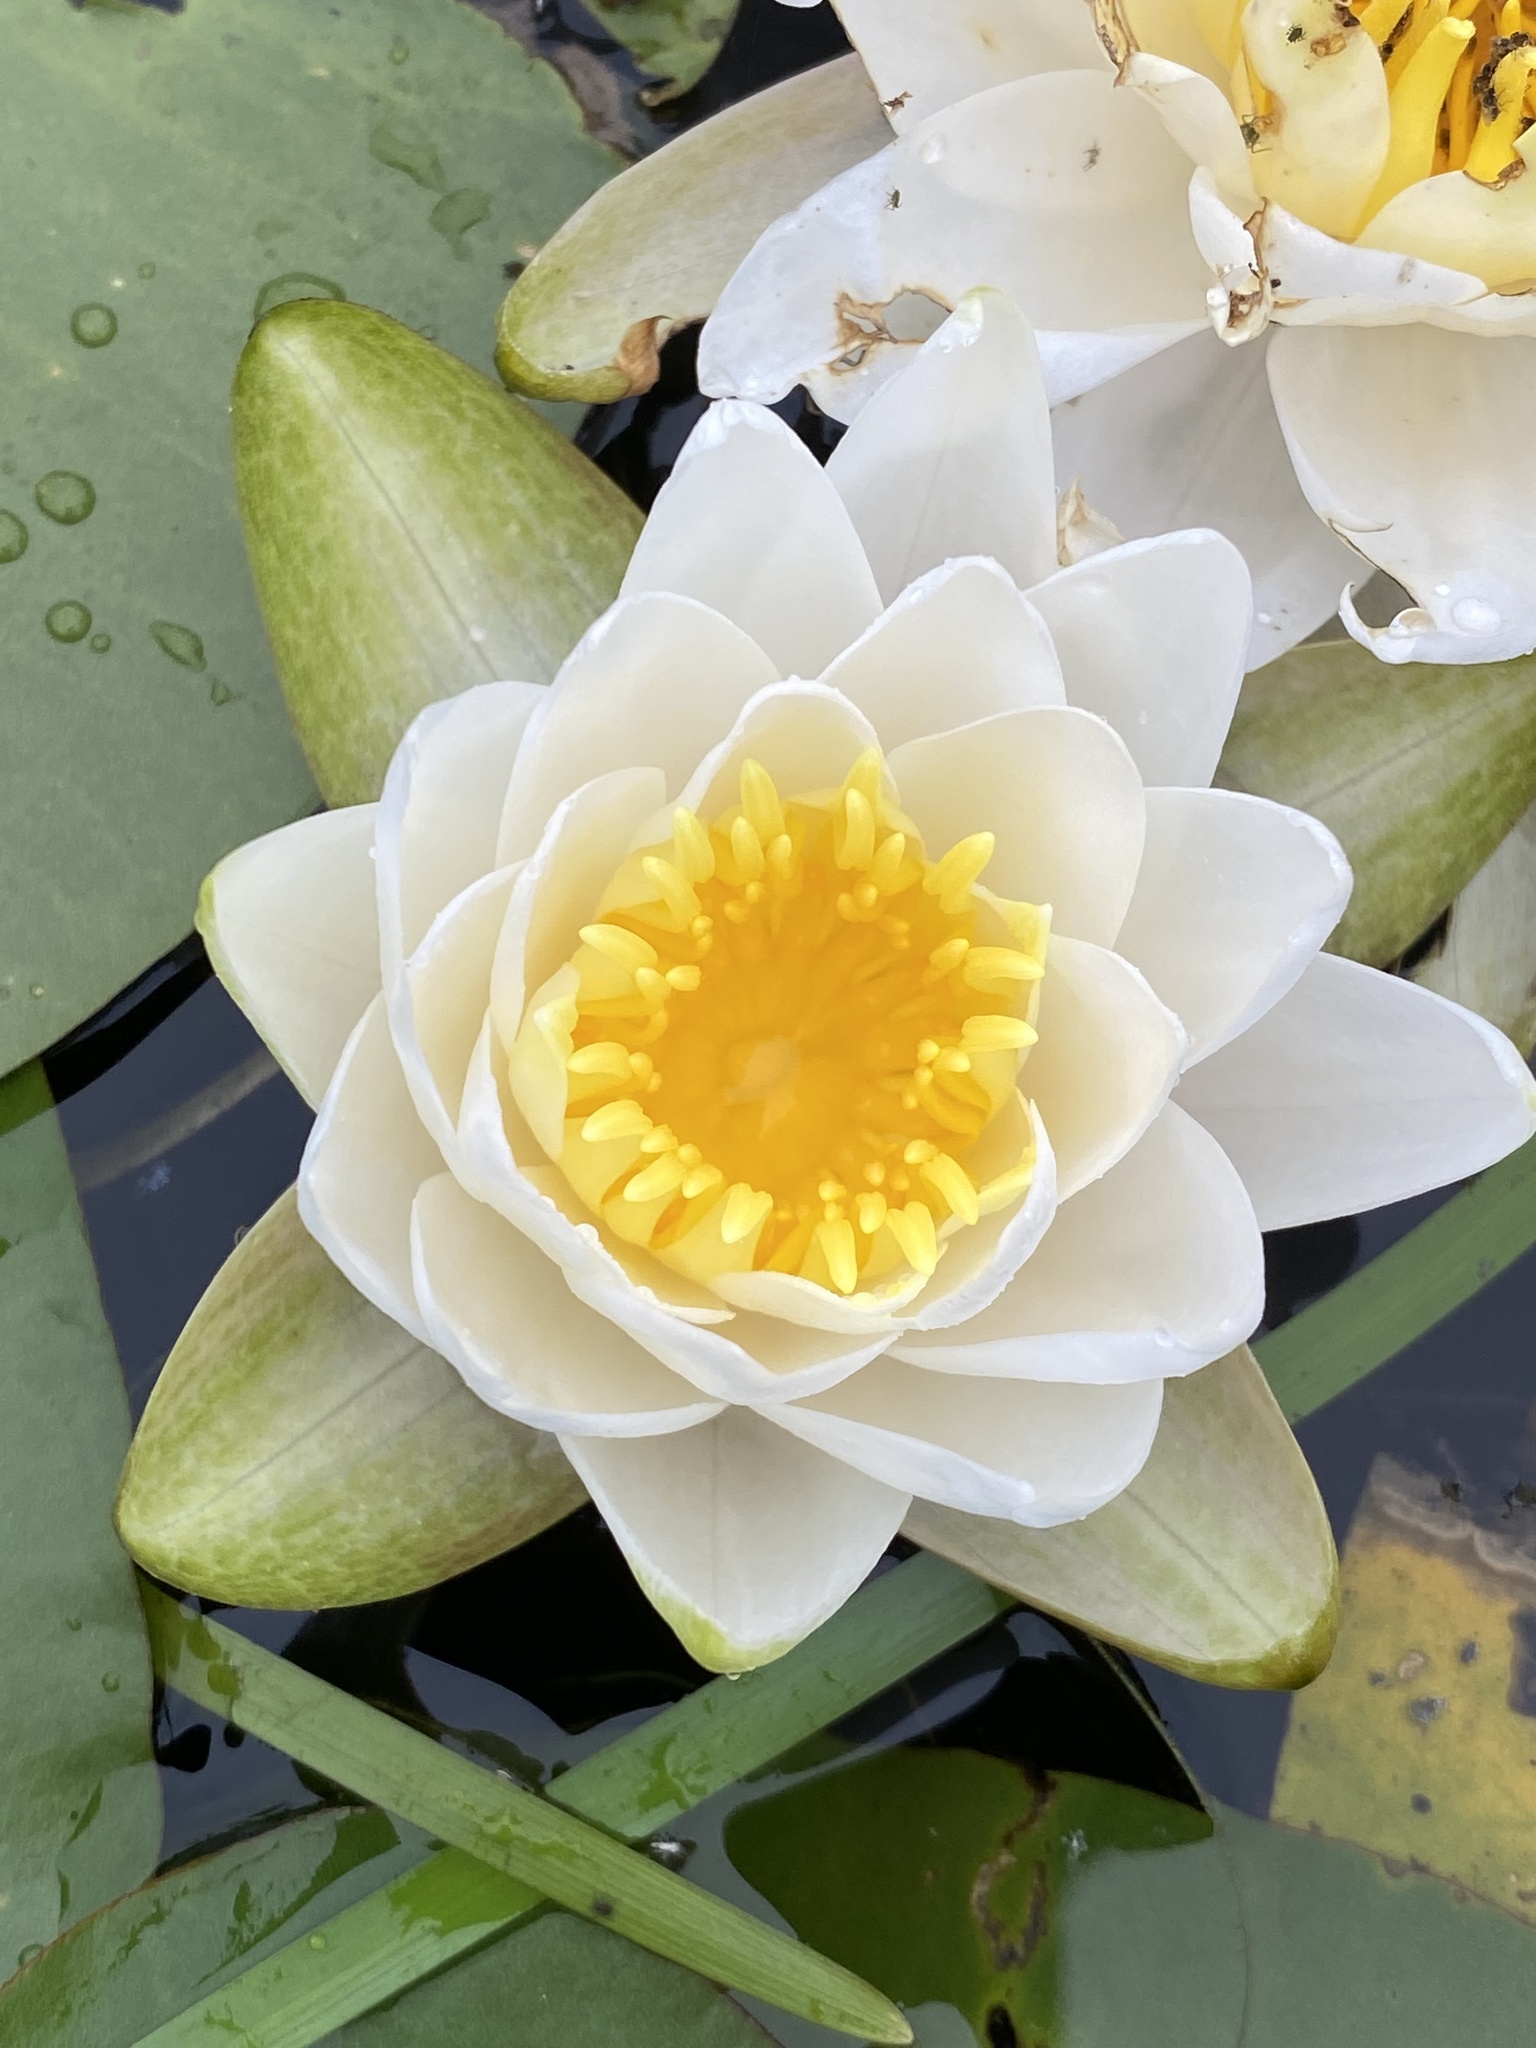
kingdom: Plantae
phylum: Tracheophyta
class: Magnoliopsida
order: Nymphaeales
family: Nymphaeaceae
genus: Nymphaea
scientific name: Nymphaea odorata
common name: Fragrant water-lily
